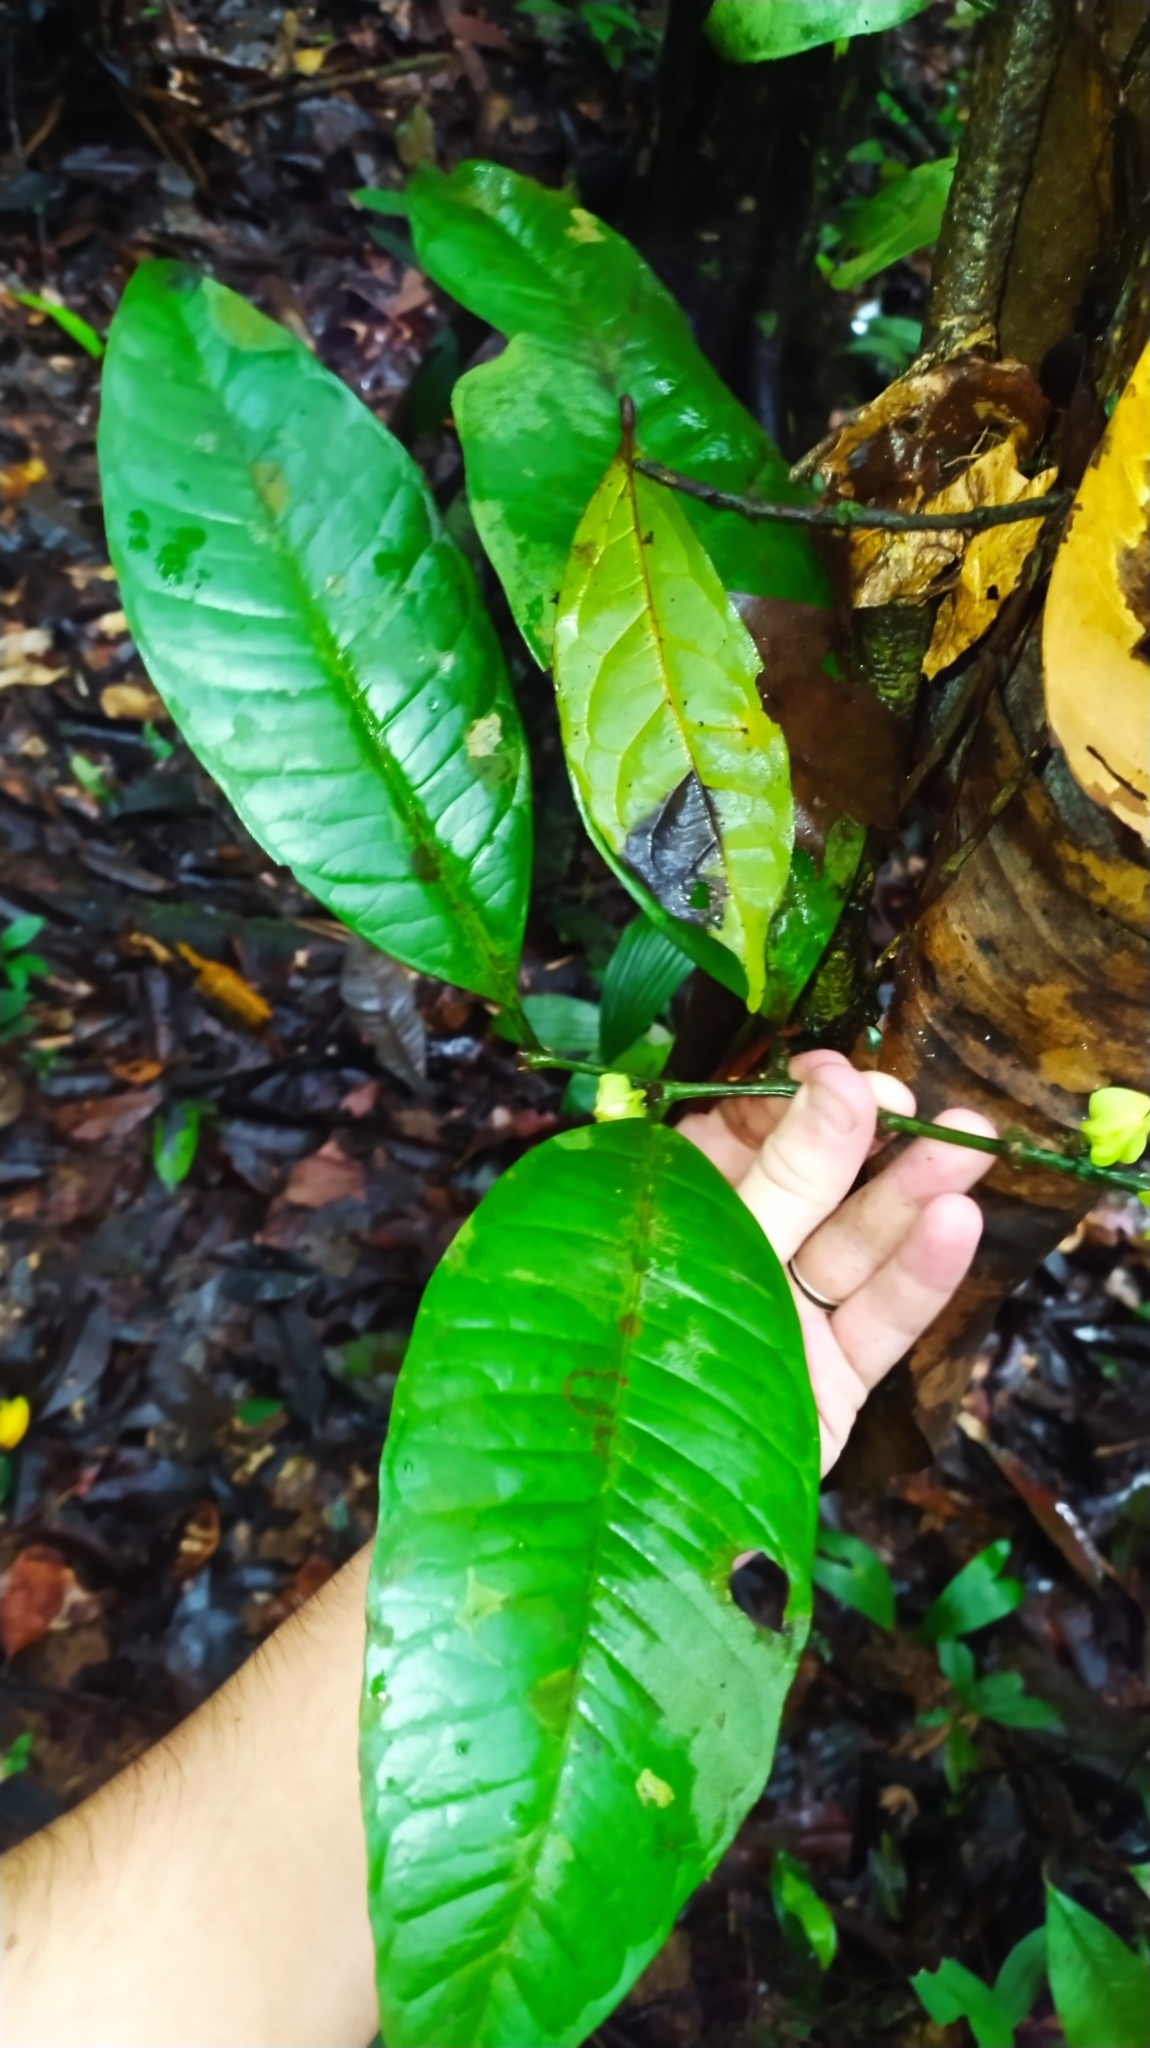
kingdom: Plantae
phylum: Tracheophyta
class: Magnoliopsida
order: Santalales
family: Erythropalaceae
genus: Heisteria
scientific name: Heisteria insculpta
